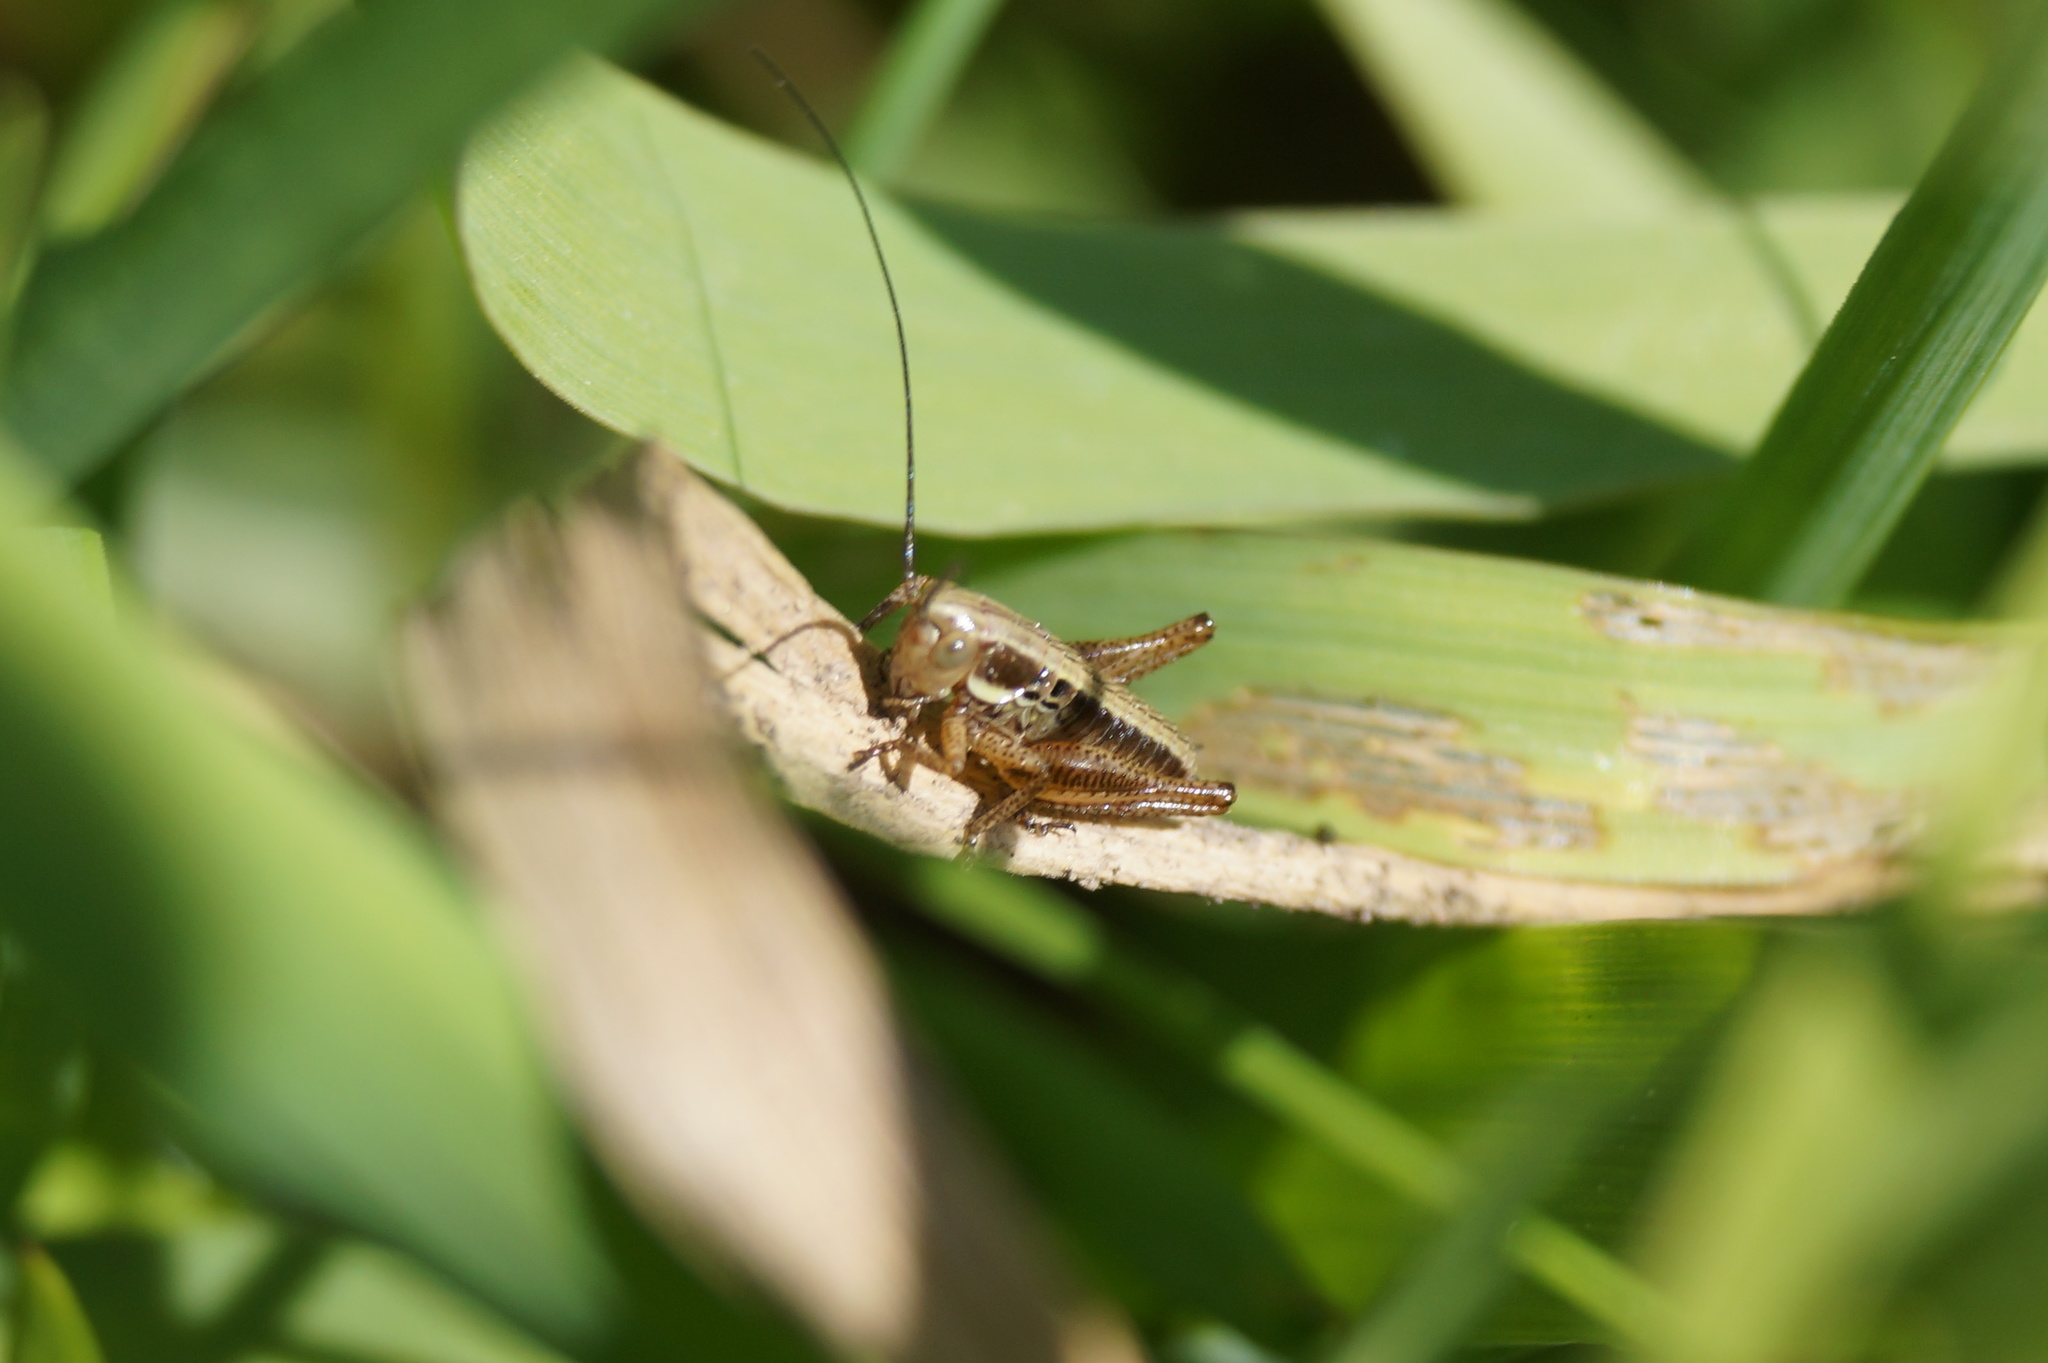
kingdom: Animalia
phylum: Arthropoda
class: Insecta
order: Orthoptera
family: Tettigoniidae
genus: Roeseliana
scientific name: Roeseliana roeselii
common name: Roesel's bush cricket
